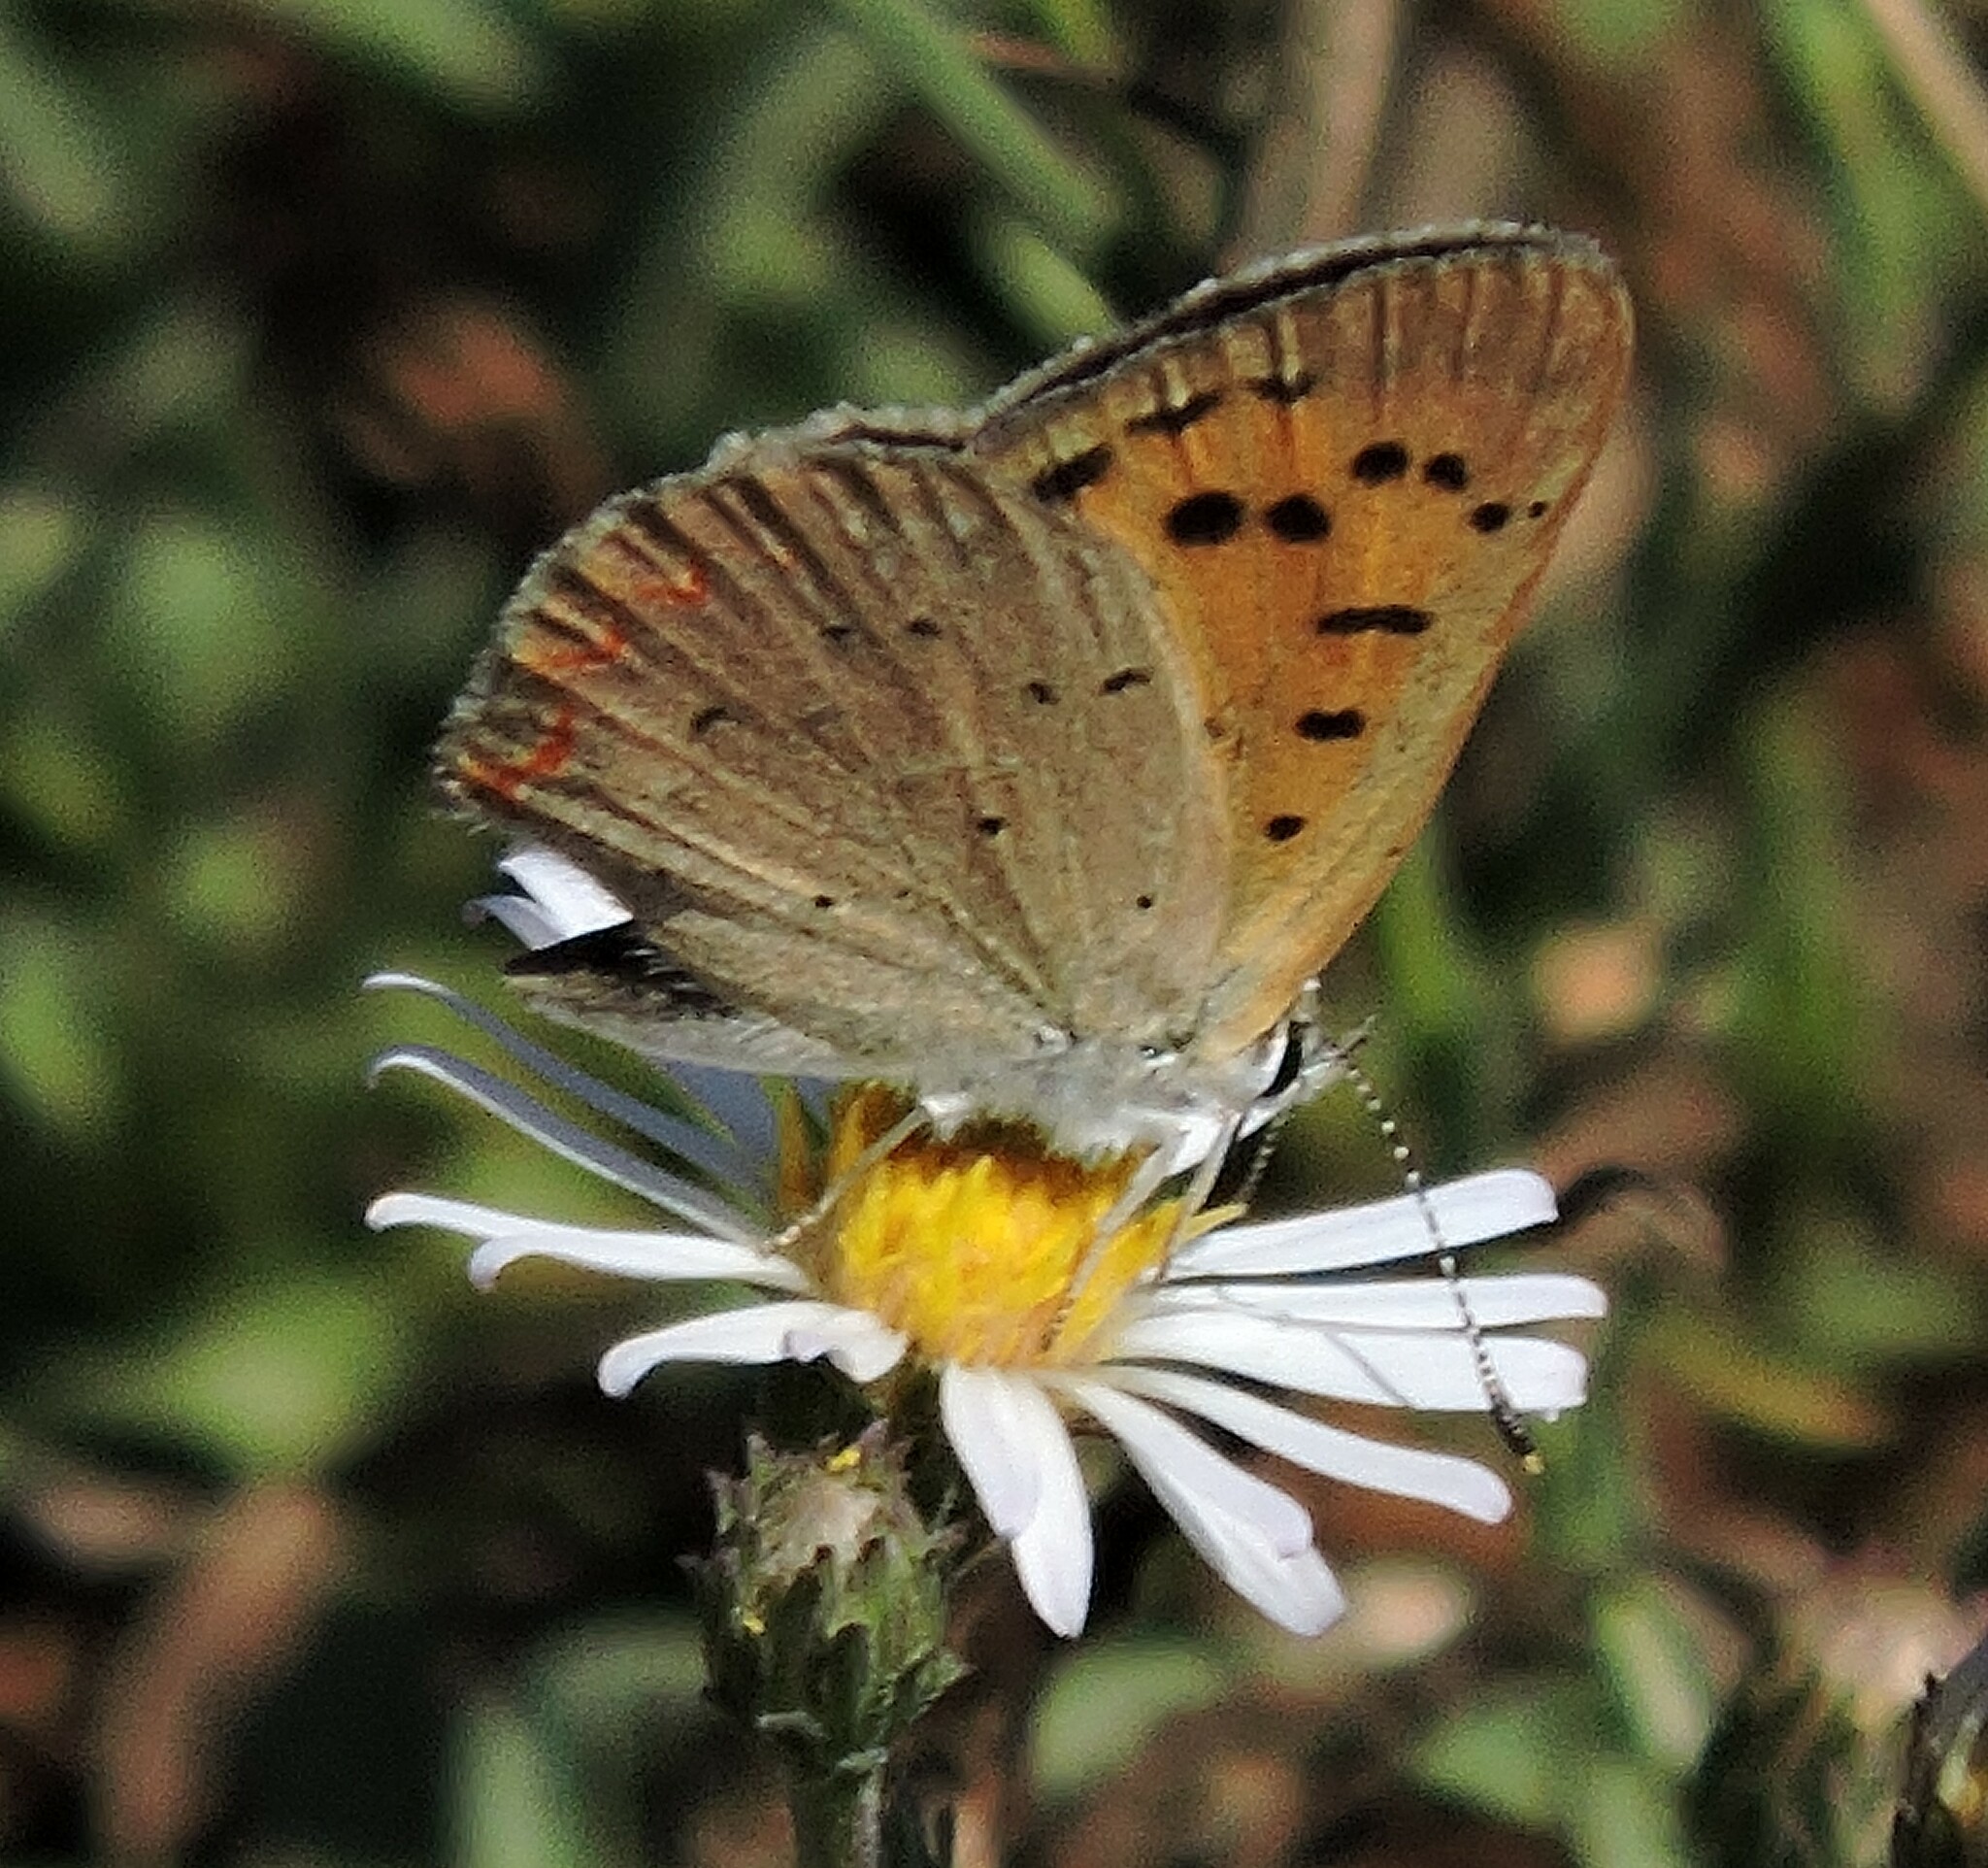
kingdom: Animalia
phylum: Arthropoda
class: Insecta
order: Lepidoptera
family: Lycaenidae
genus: Tharsalea
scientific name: Tharsalea helloides
